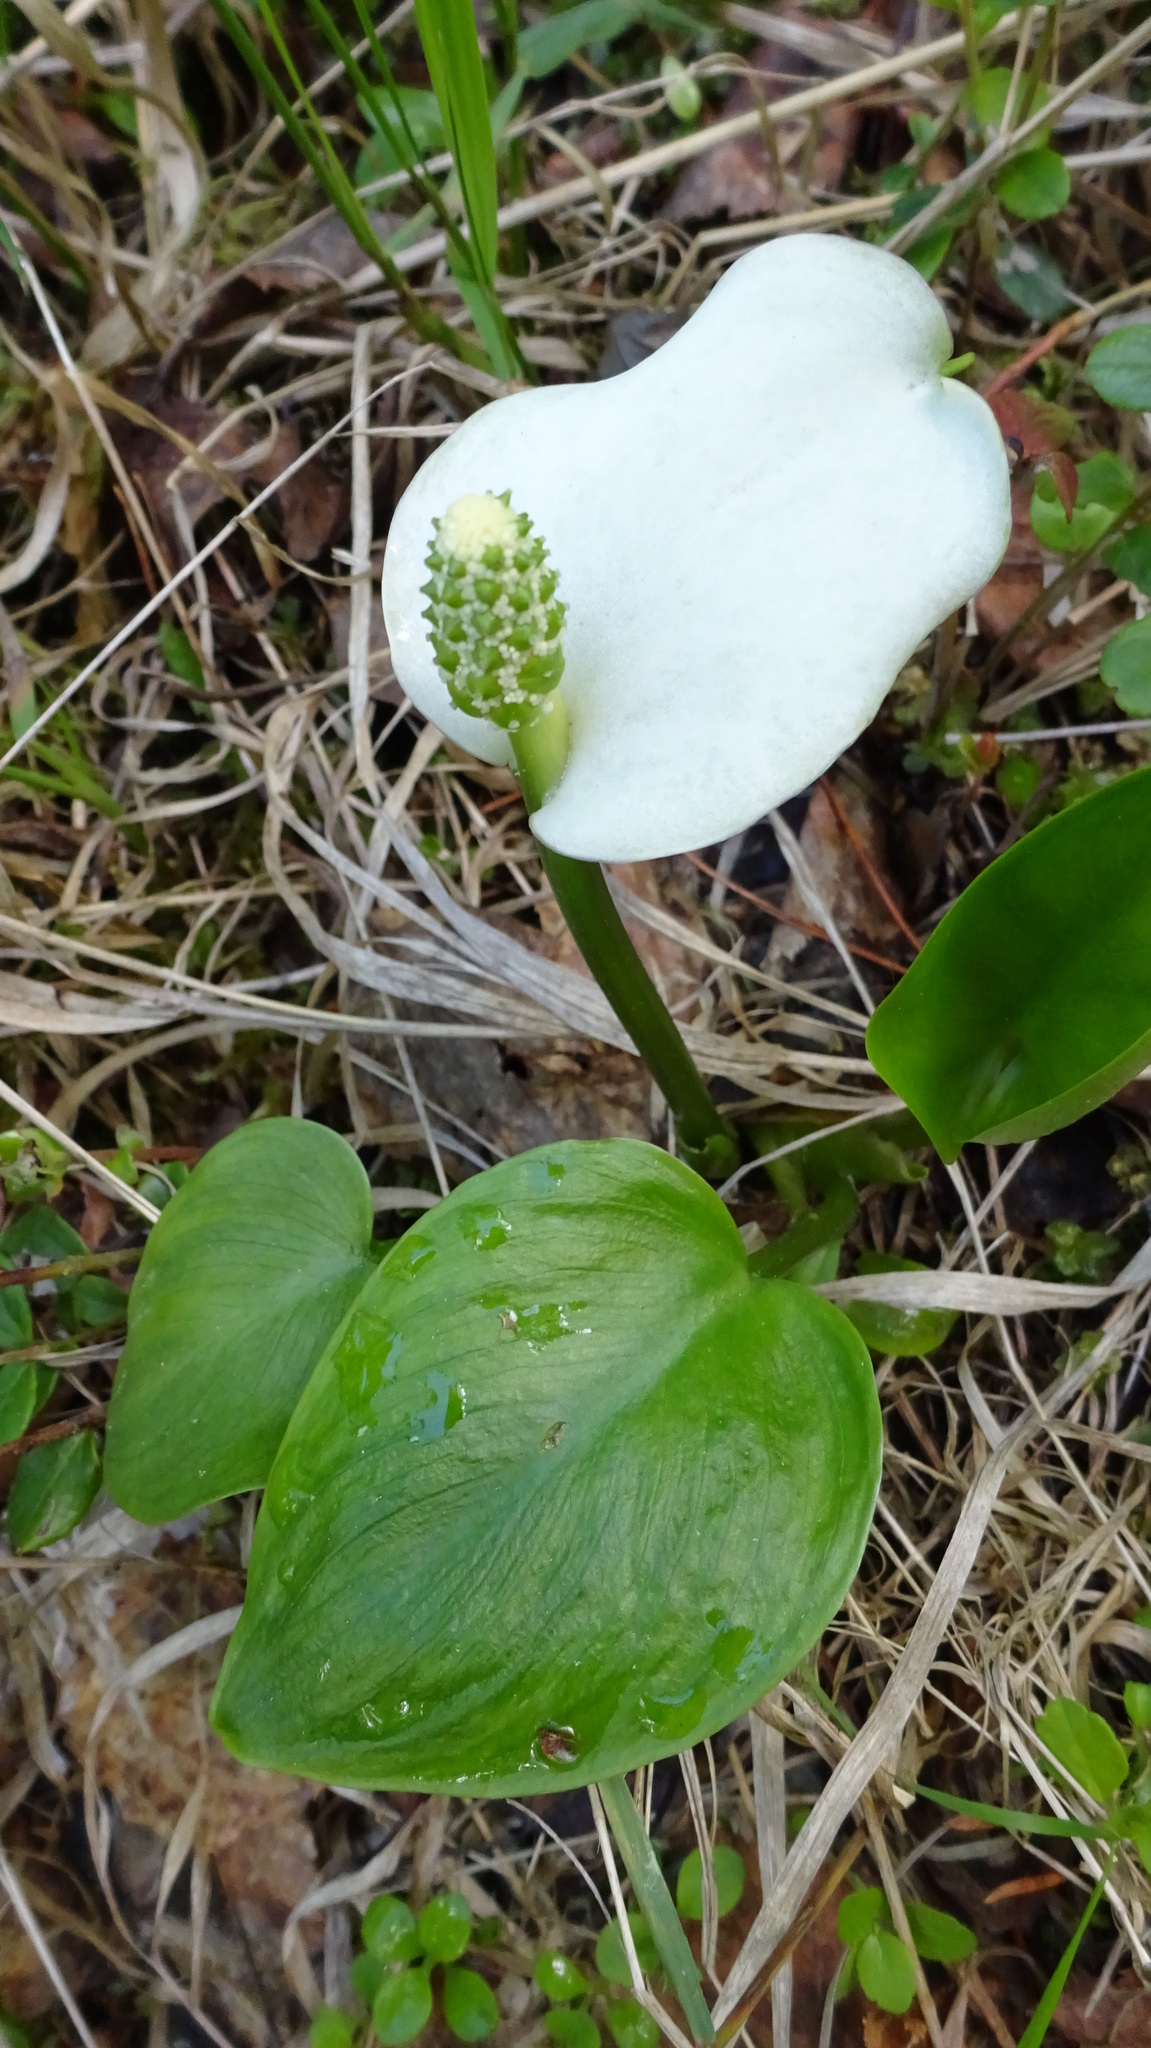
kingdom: Plantae
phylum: Tracheophyta
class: Liliopsida
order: Alismatales
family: Araceae
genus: Calla
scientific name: Calla palustris
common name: Bog arum
